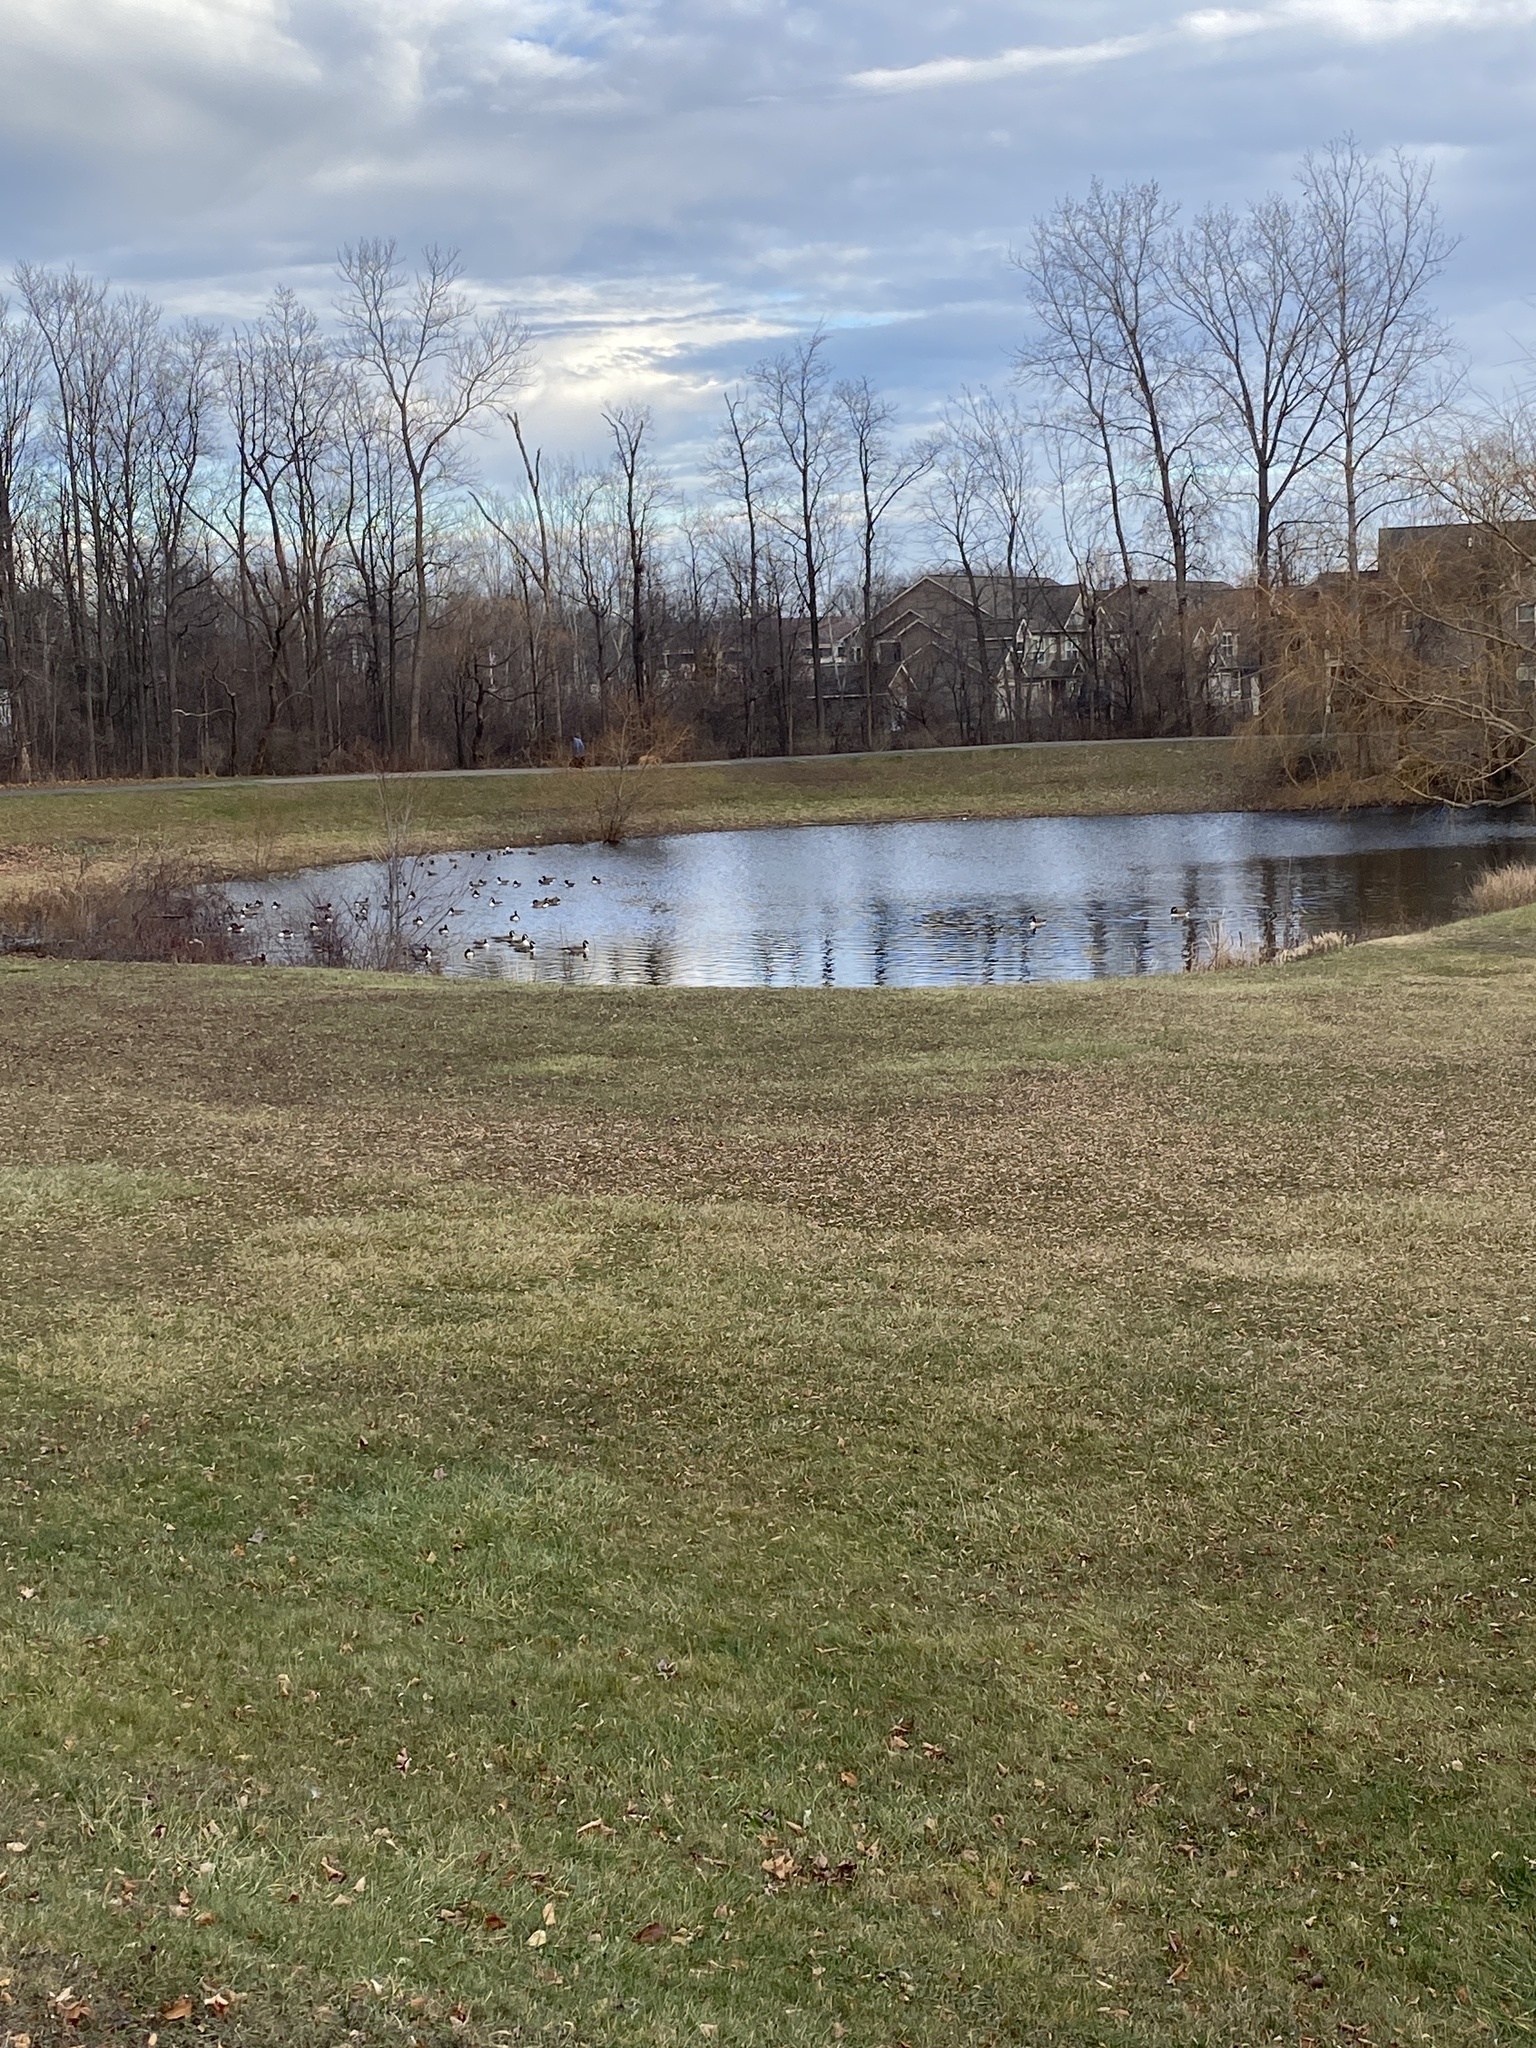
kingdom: Animalia
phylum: Chordata
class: Aves
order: Anseriformes
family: Anatidae
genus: Branta
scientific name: Branta canadensis
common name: Canada goose
